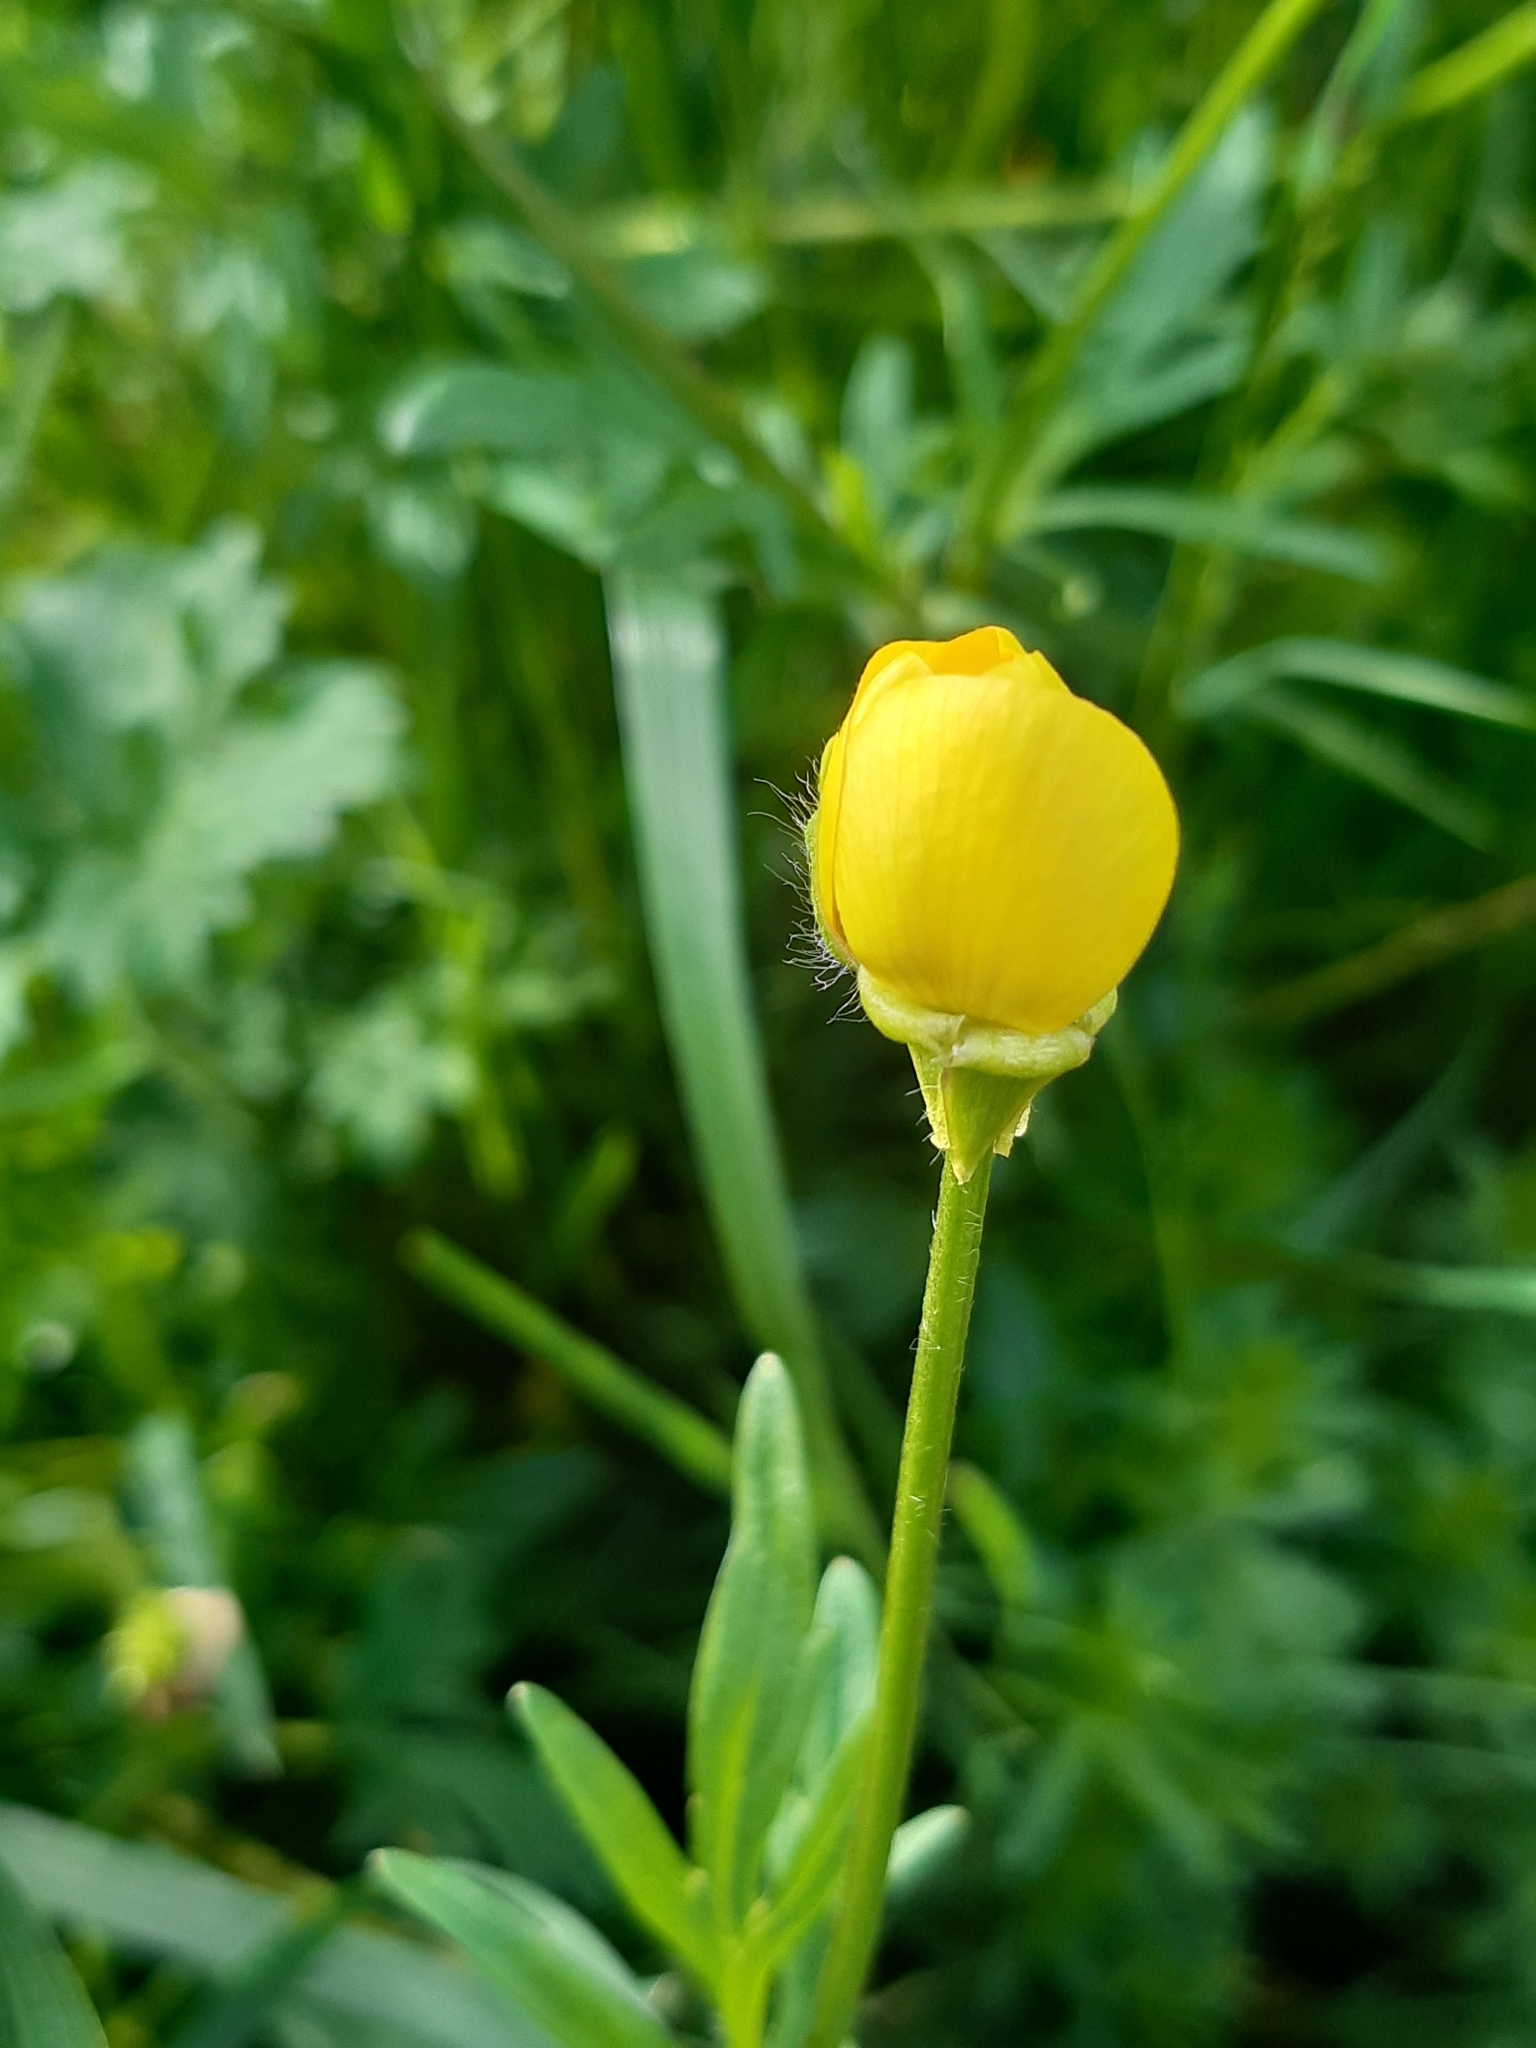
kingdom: Plantae
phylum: Tracheophyta
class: Magnoliopsida
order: Ranunculales
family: Ranunculaceae
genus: Ranunculus
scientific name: Ranunculus bulbosus
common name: Bulbous buttercup
